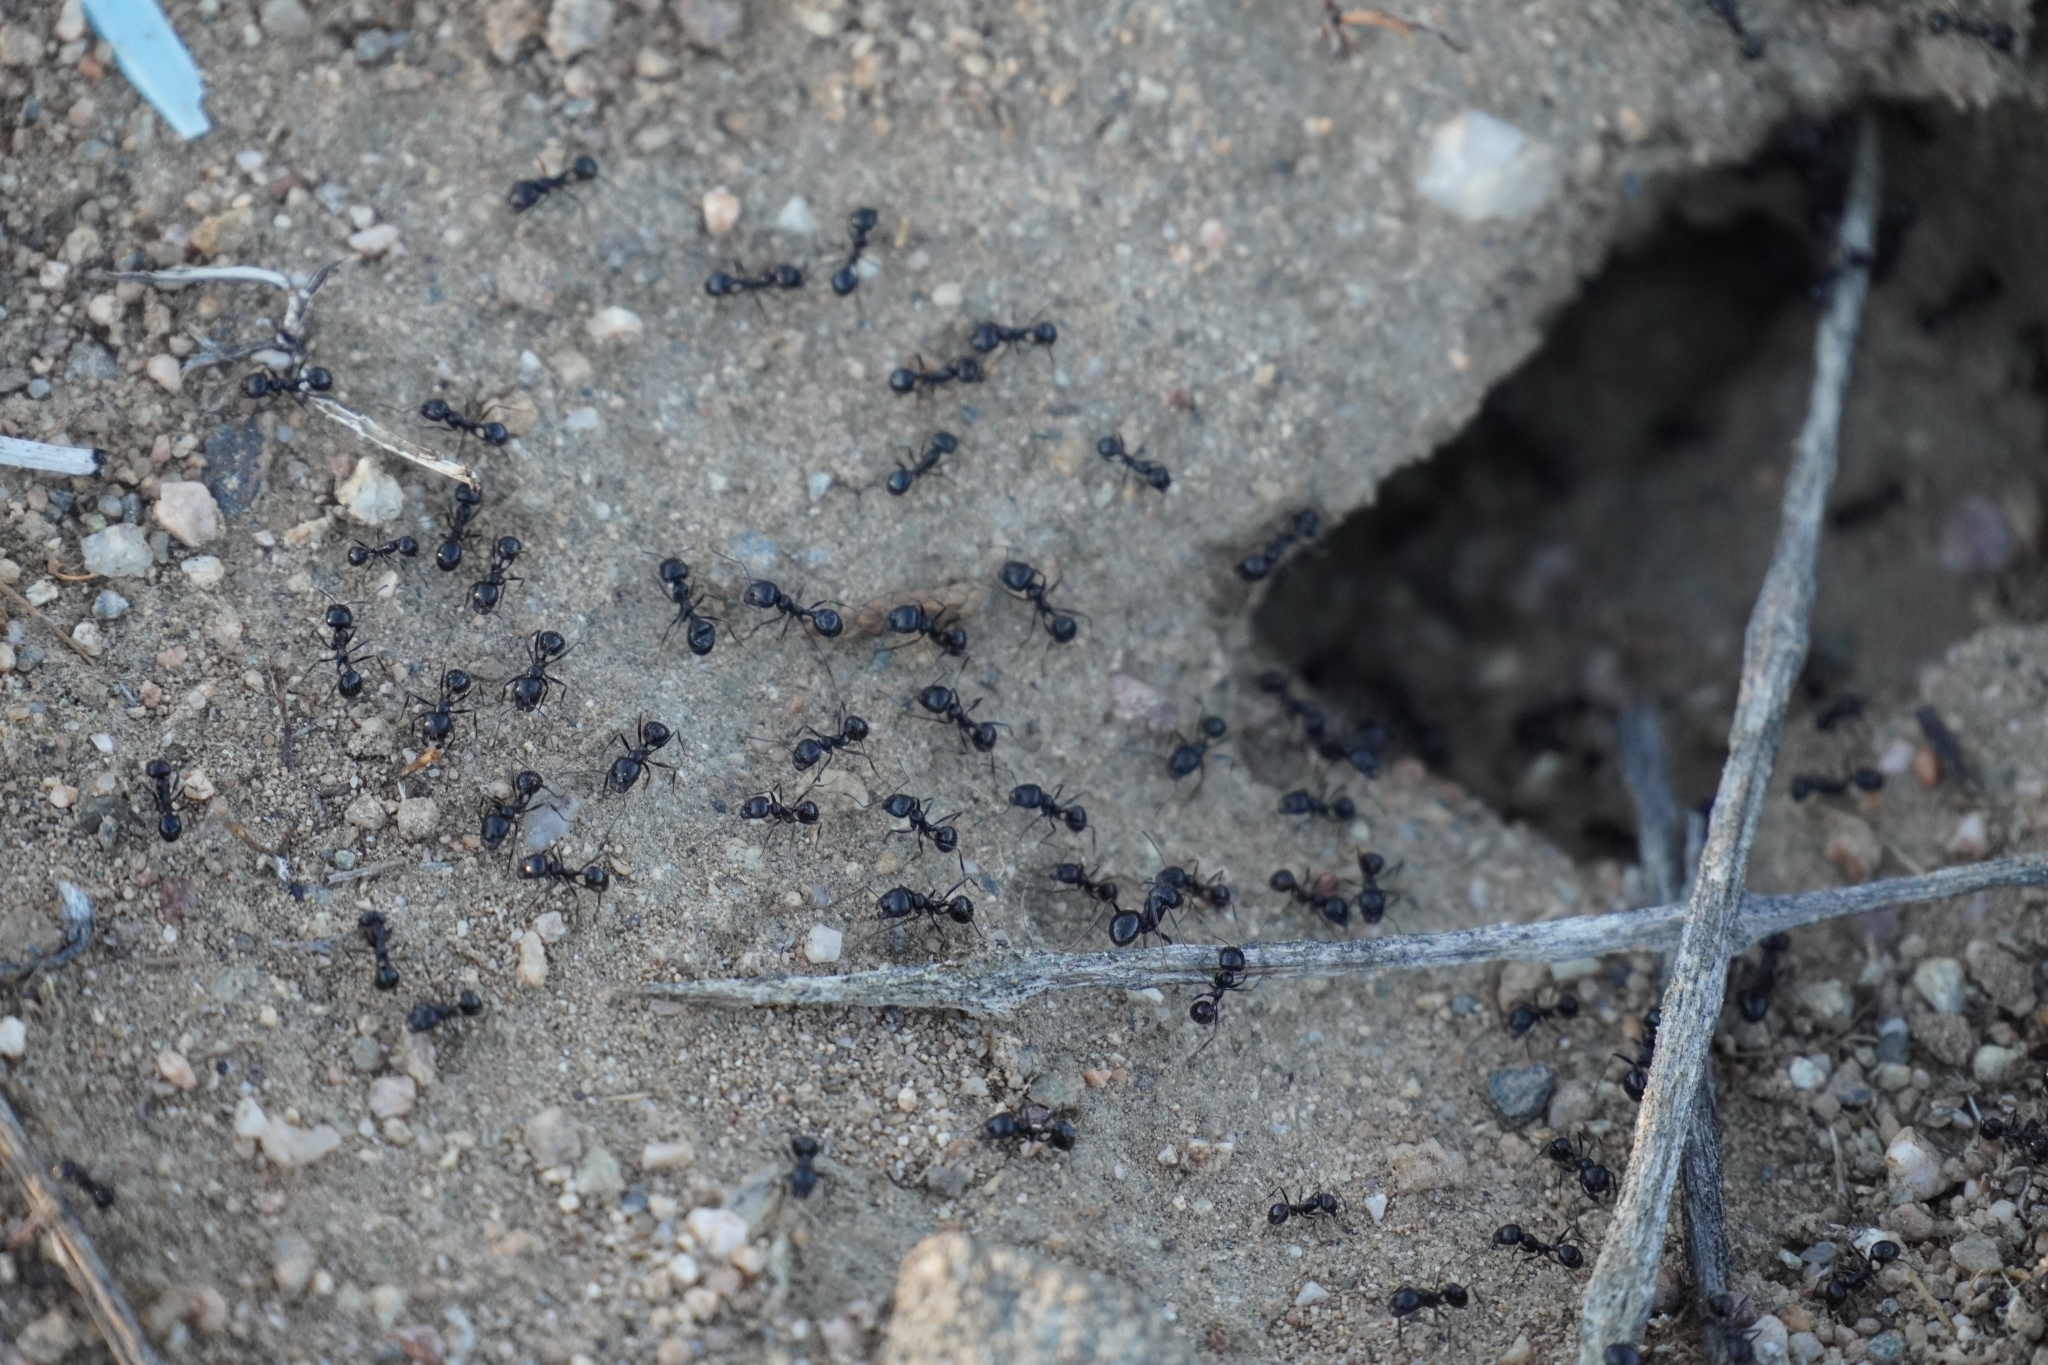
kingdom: Animalia
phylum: Arthropoda
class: Insecta
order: Hymenoptera
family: Formicidae
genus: Messor
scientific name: Messor pergandei
